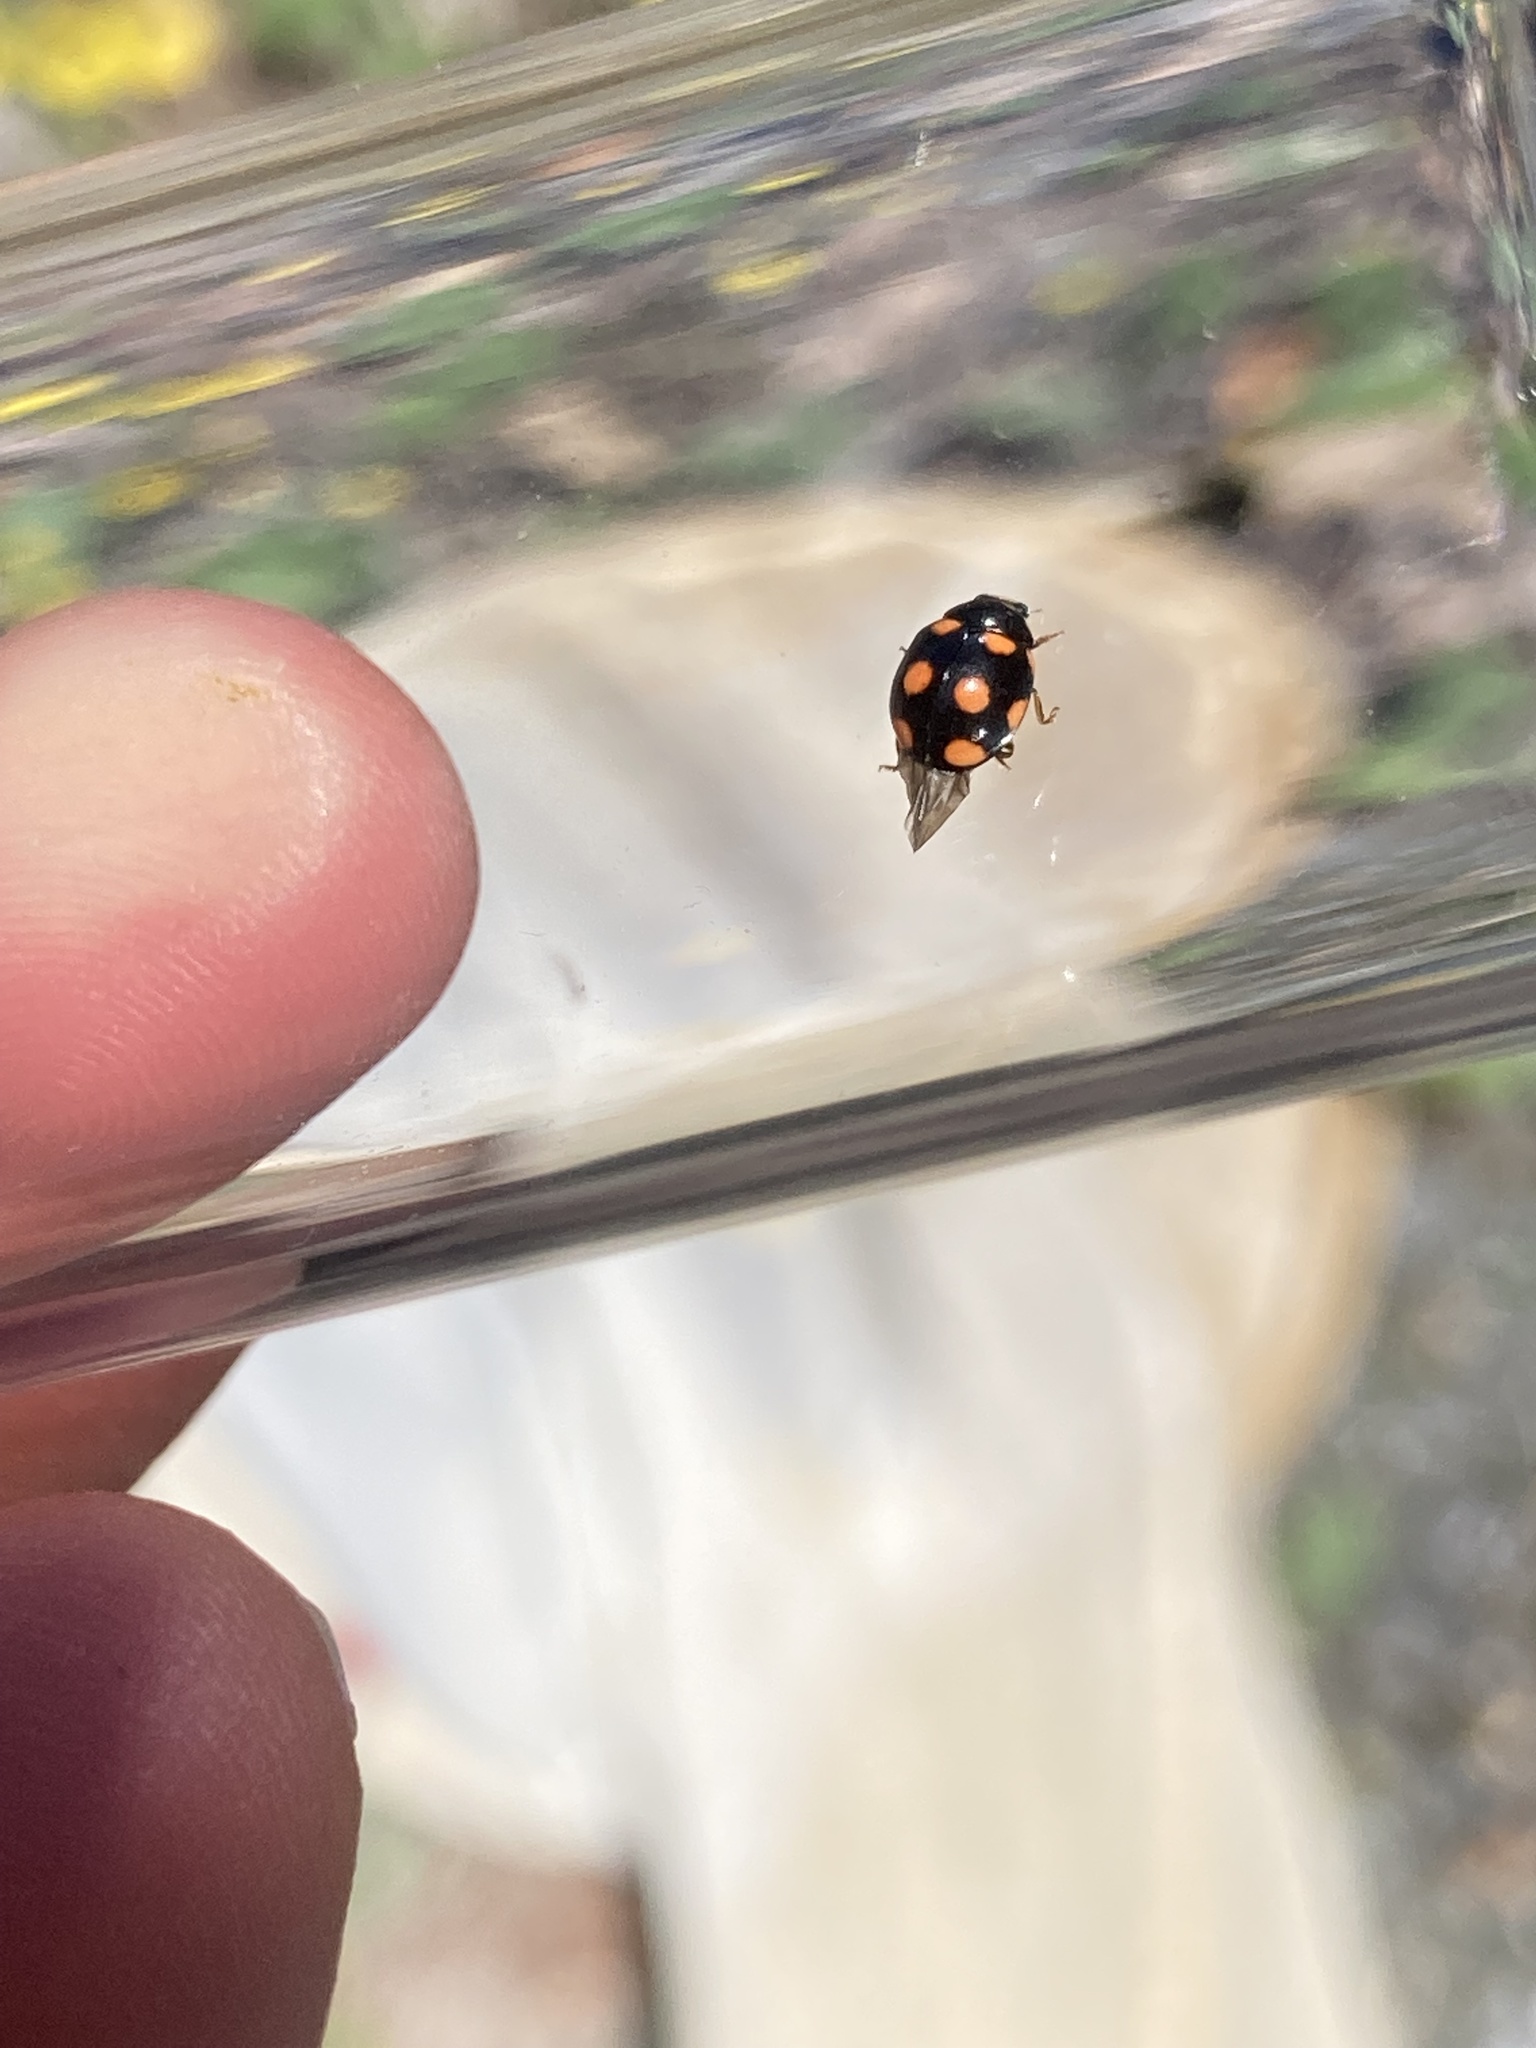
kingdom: Animalia
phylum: Arthropoda
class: Insecta
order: Coleoptera
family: Coccinellidae
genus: Brachiacantha
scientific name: Brachiacantha ursina
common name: Ursine spurleg lady beetle
